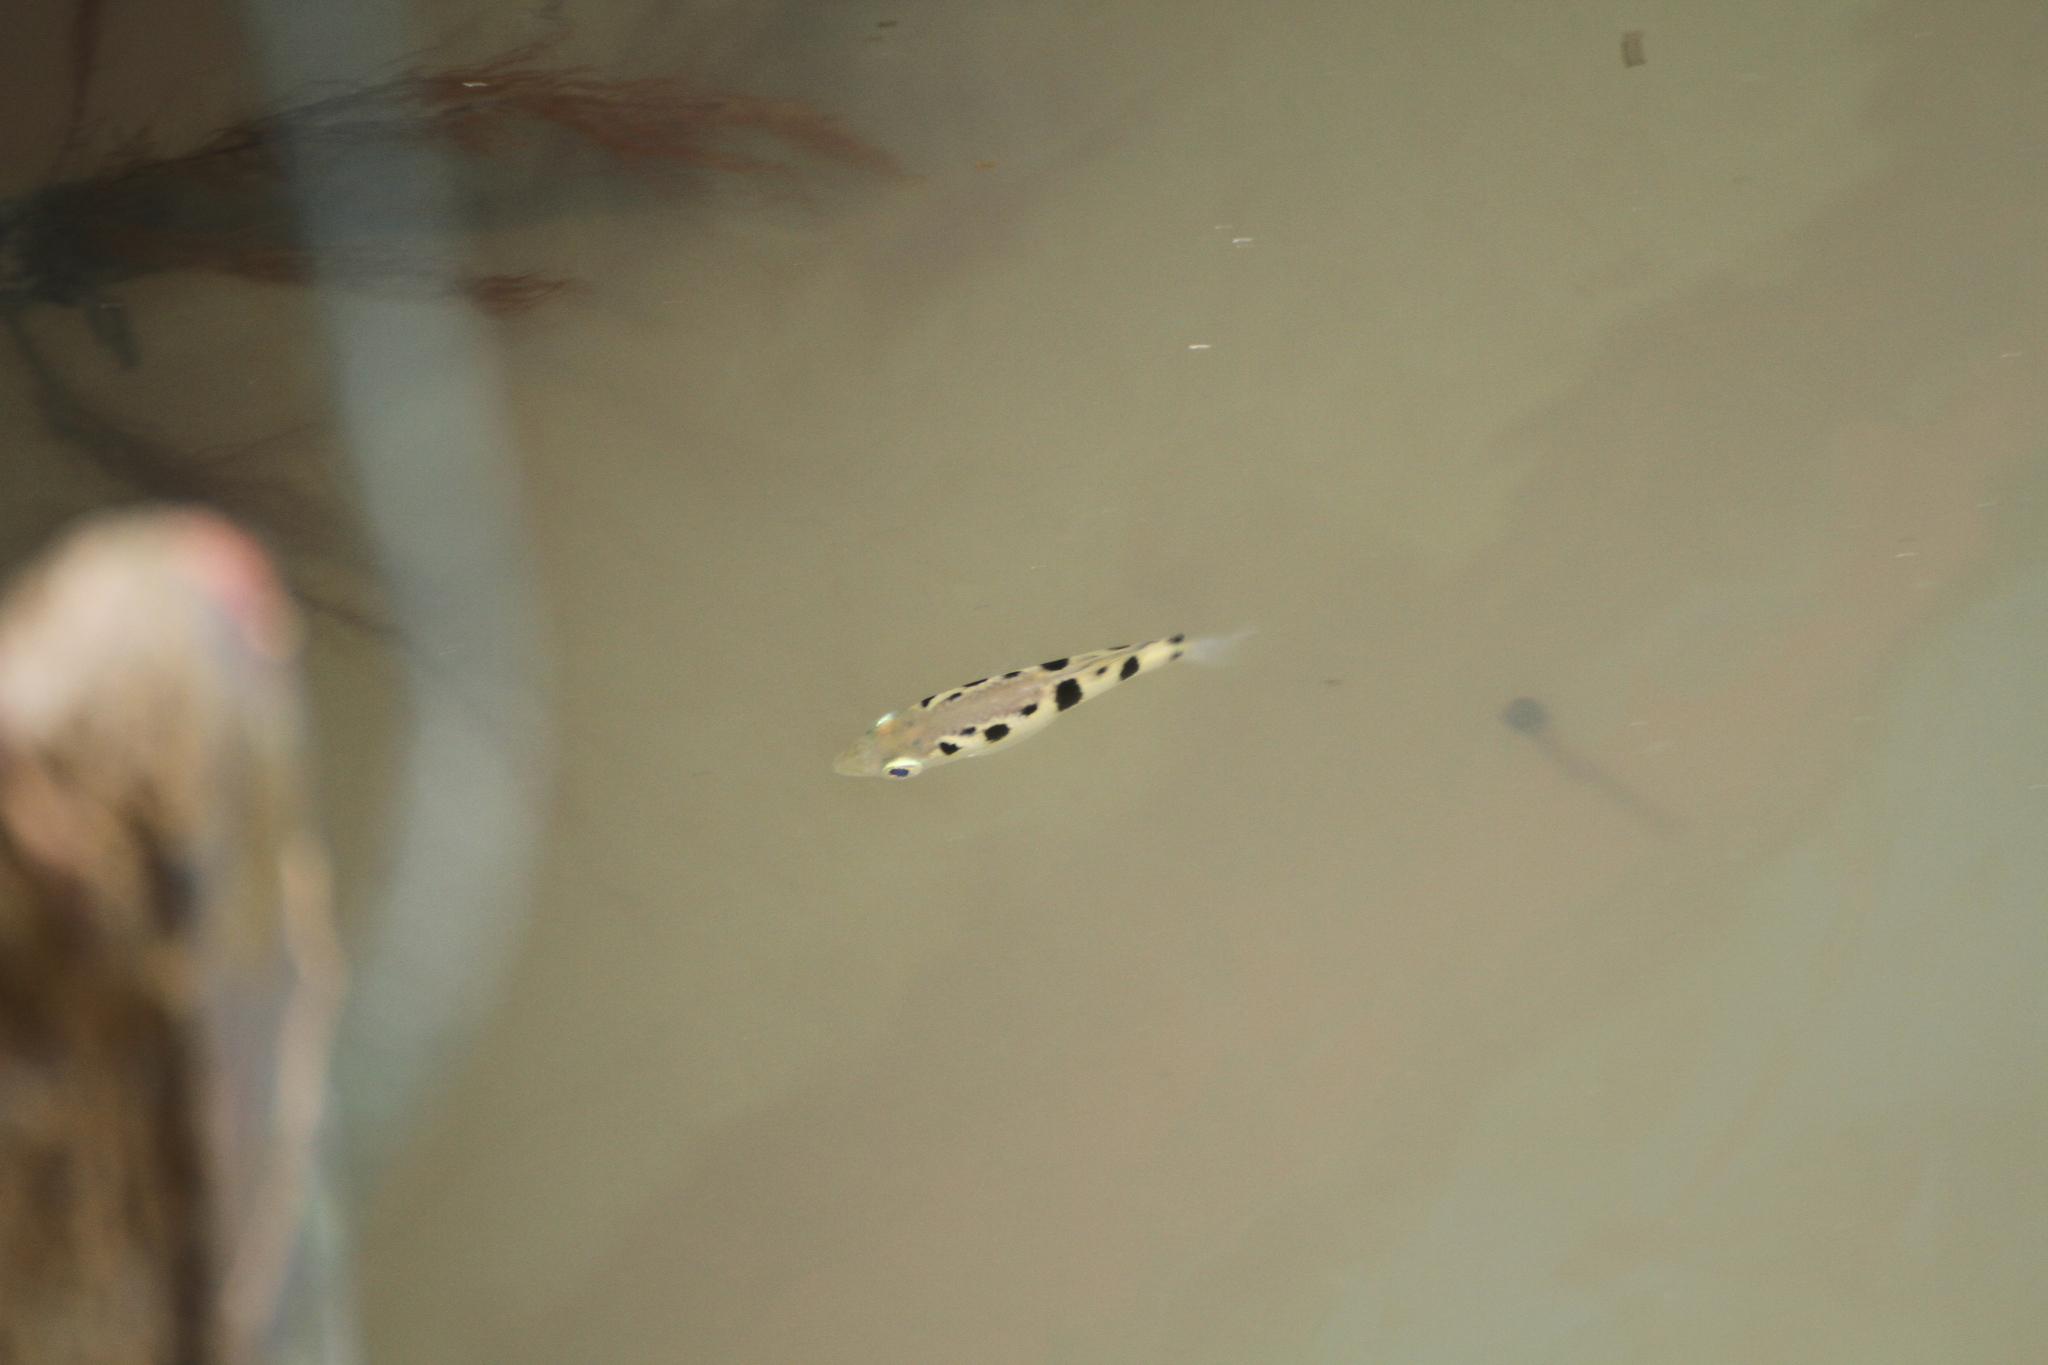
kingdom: Animalia
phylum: Chordata
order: Perciformes
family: Toxotidae
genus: Toxotes
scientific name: Toxotes chatareus
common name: Spotted archerfish
